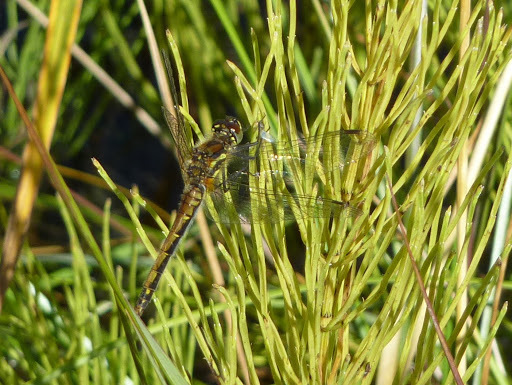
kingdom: Animalia
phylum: Arthropoda
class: Insecta
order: Odonata
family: Libellulidae
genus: Sympetrum
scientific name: Sympetrum danae
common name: Black darter
